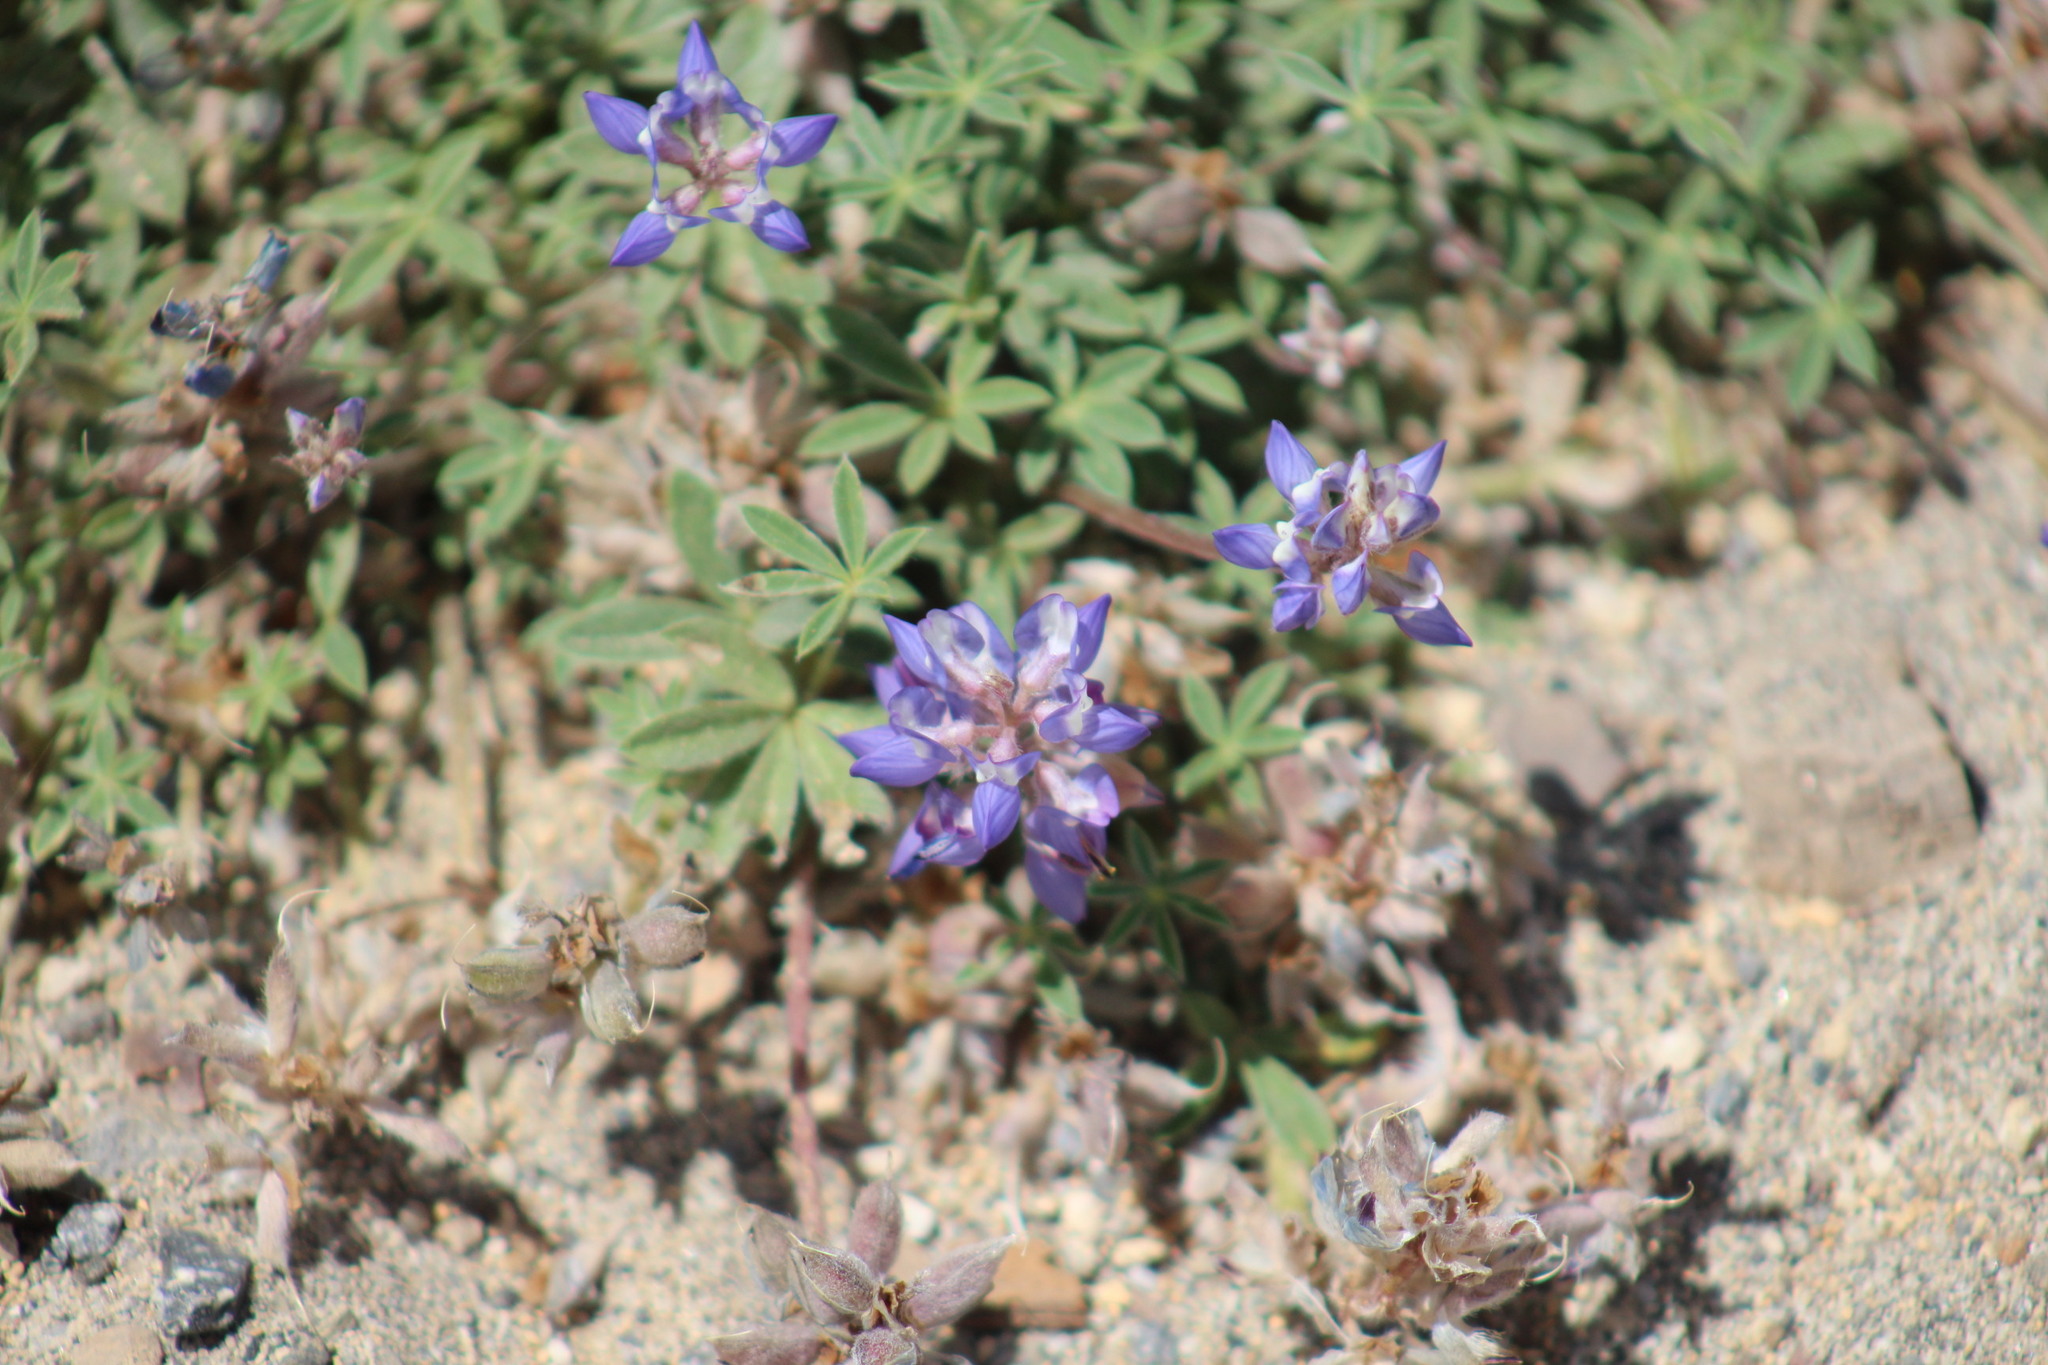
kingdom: Plantae
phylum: Tracheophyta
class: Magnoliopsida
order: Fabales
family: Fabaceae
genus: Lupinus
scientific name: Lupinus lepidus
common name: Prairie lupine
